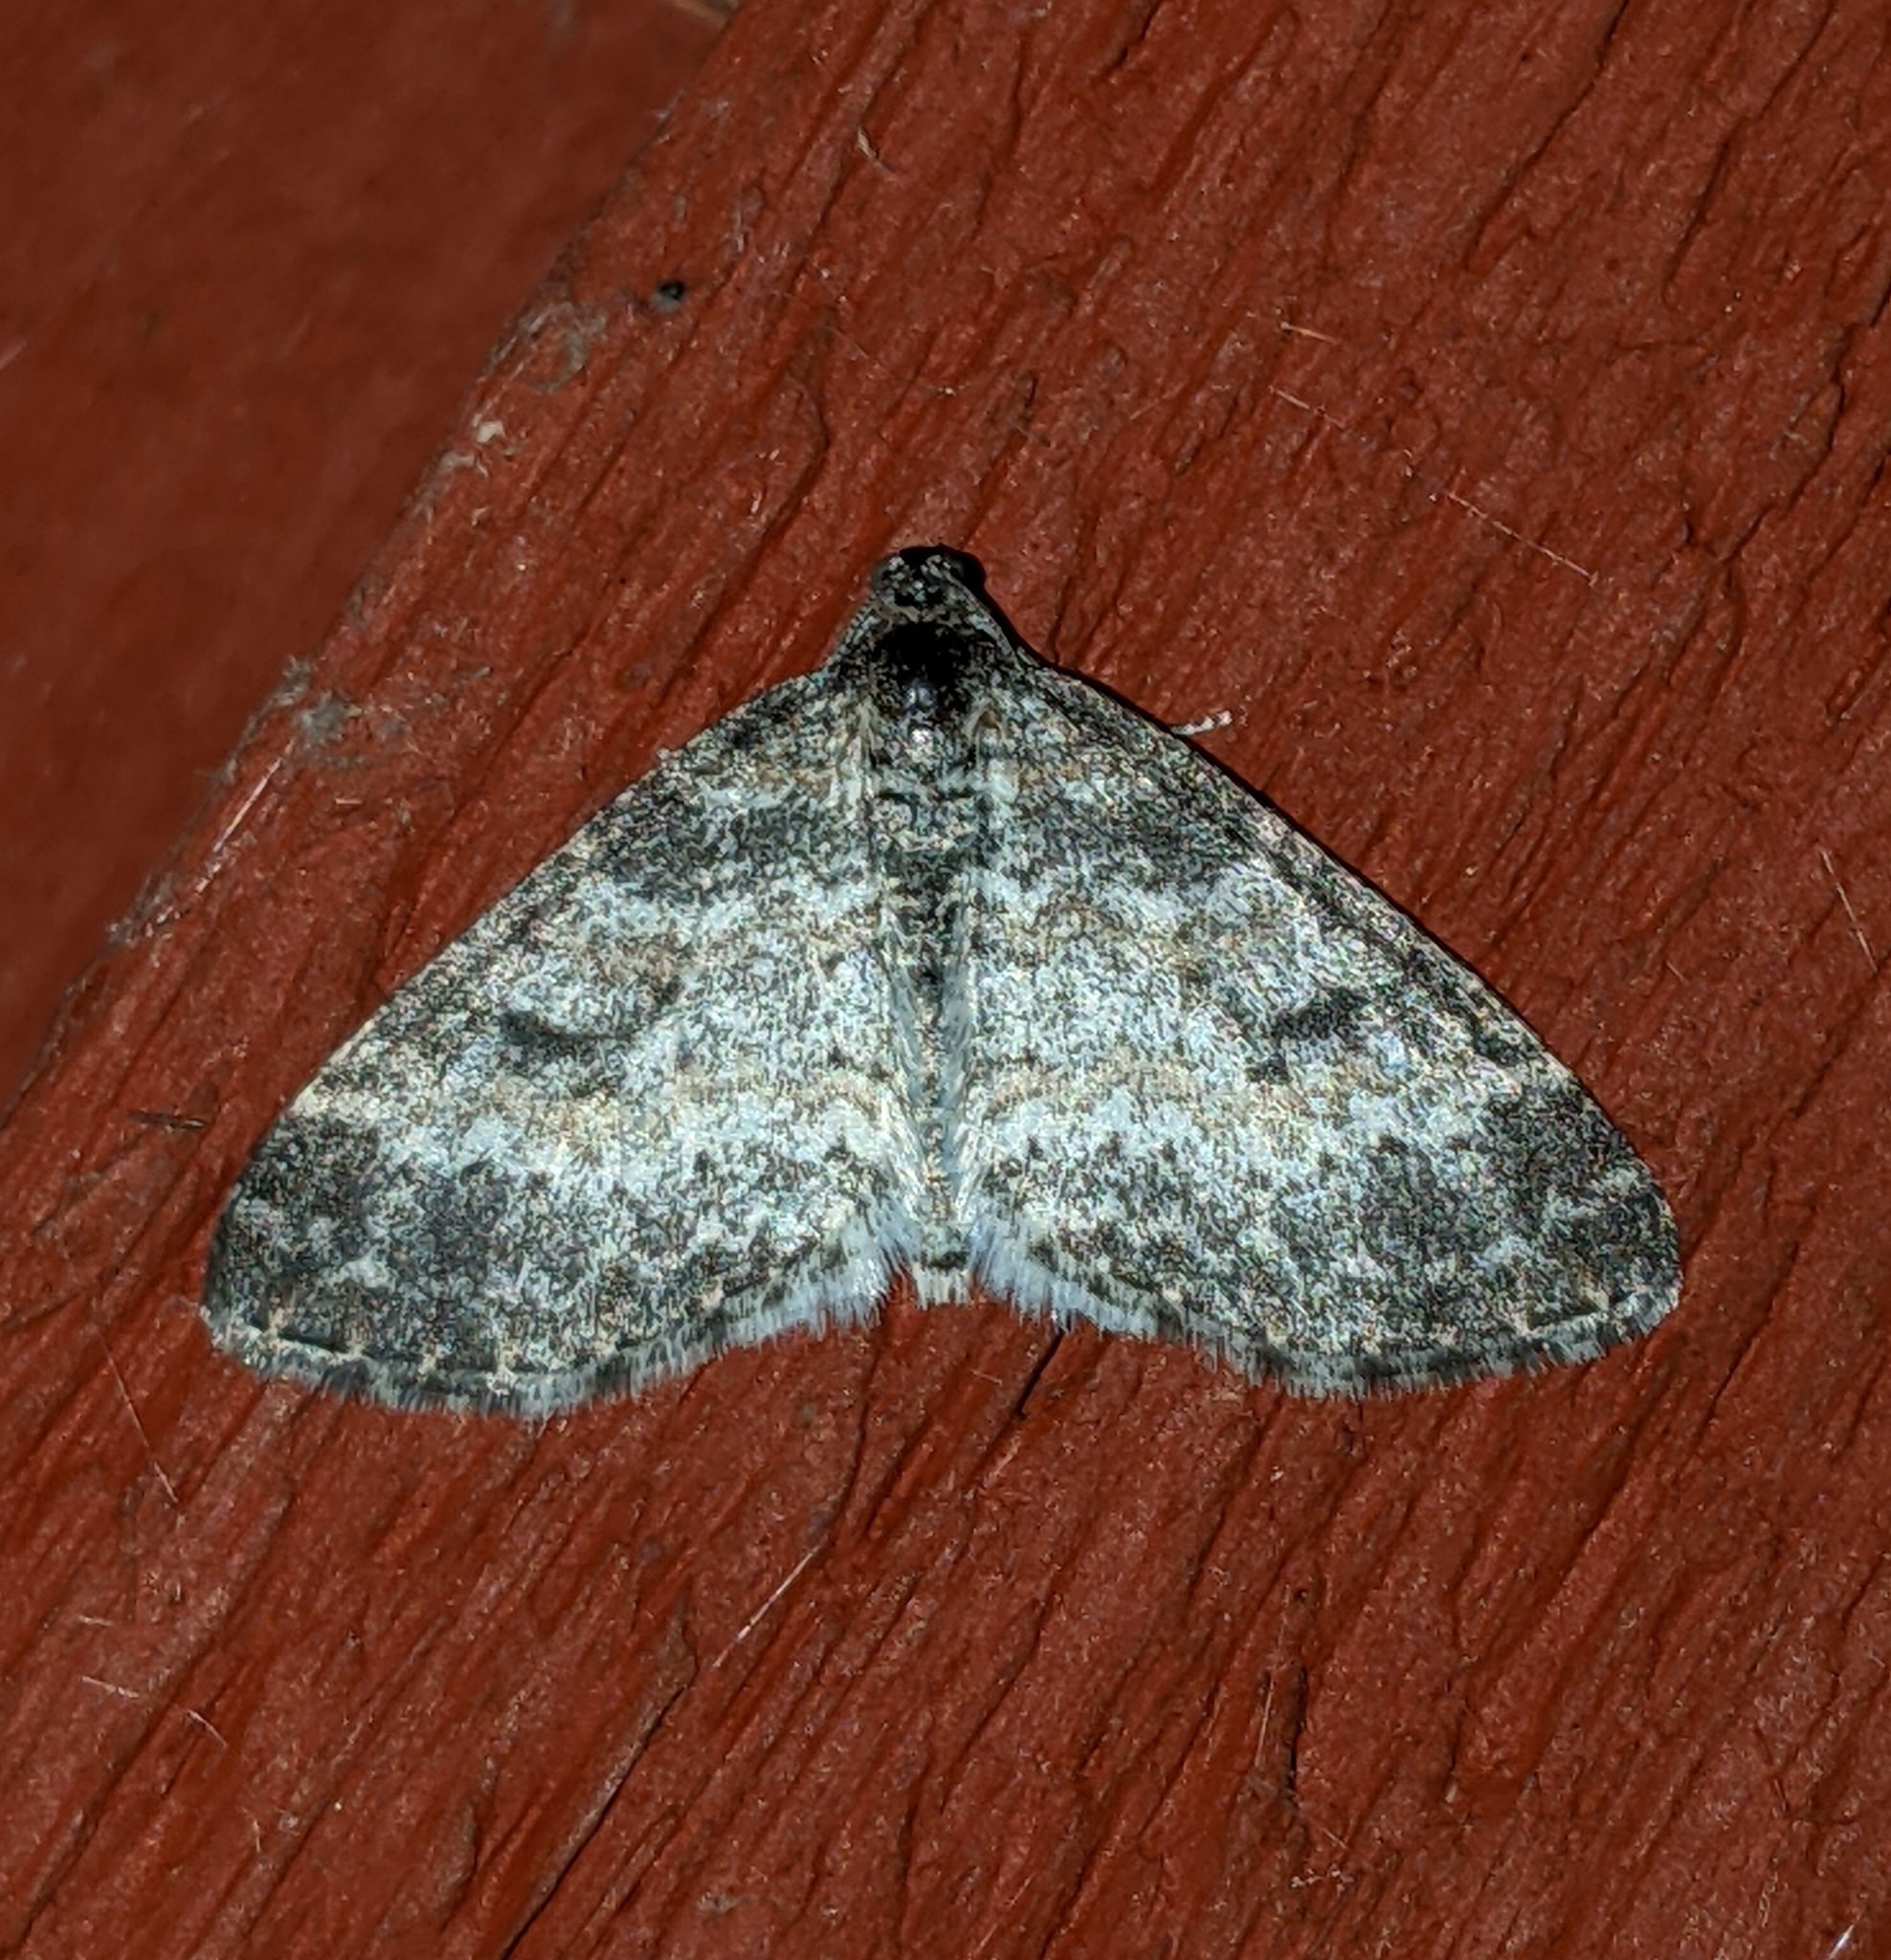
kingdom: Animalia
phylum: Arthropoda
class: Insecta
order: Lepidoptera
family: Geometridae
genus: Lobophora
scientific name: Lobophora nivigerata
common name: Powdered bigwing
